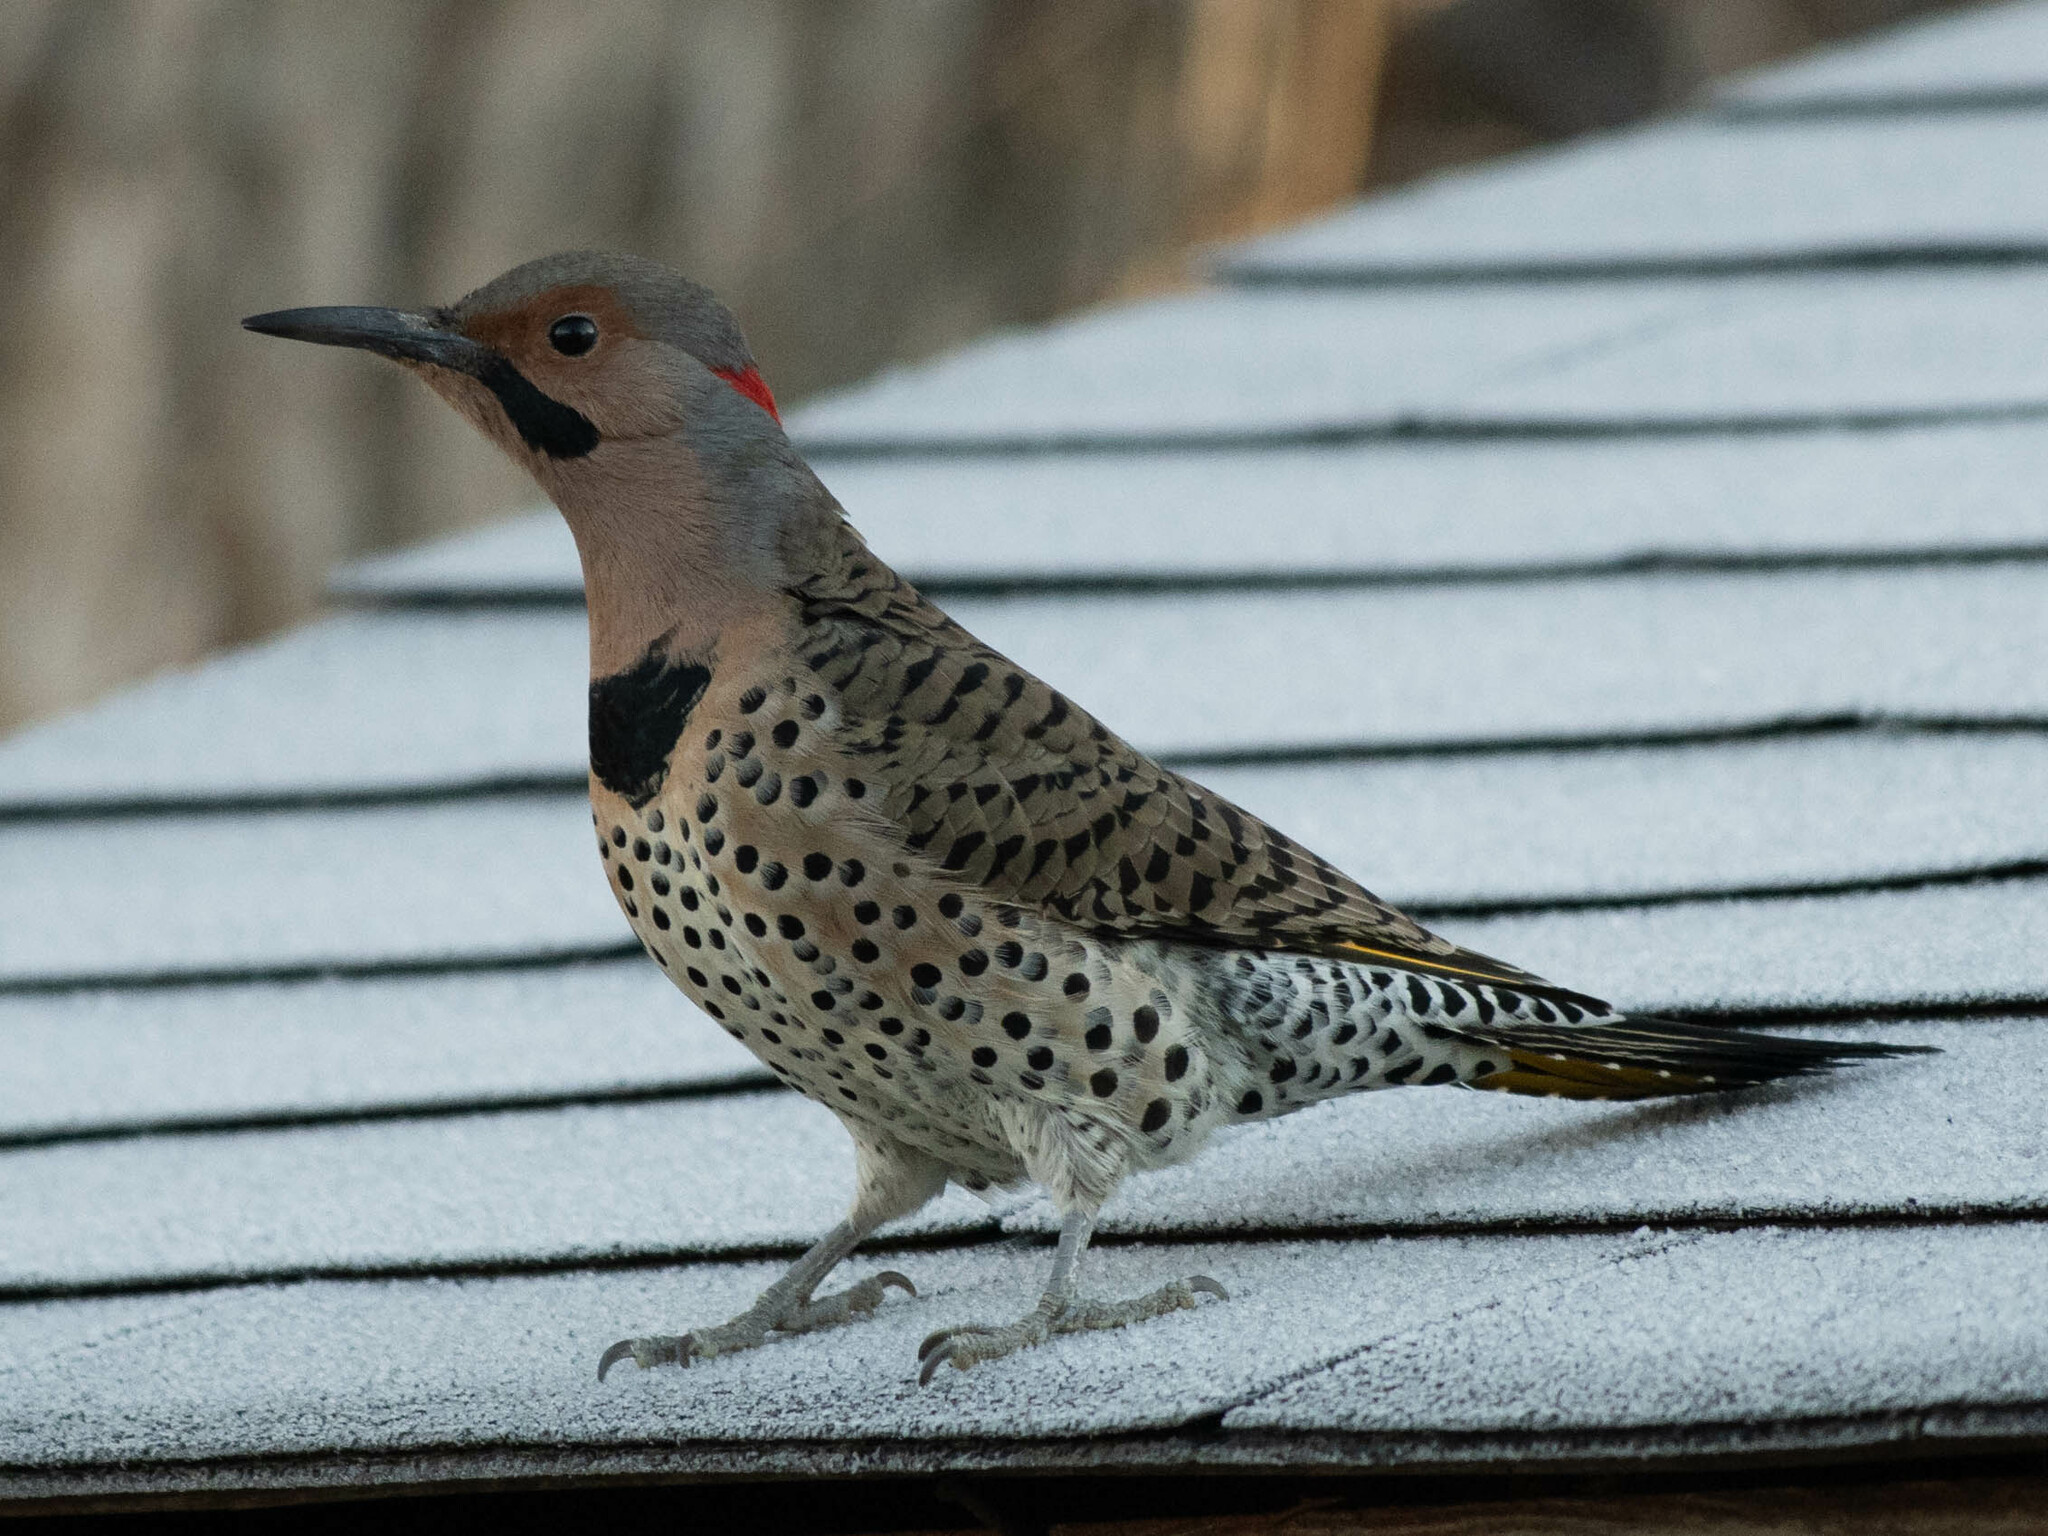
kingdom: Animalia
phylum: Chordata
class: Aves
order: Piciformes
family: Picidae
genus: Colaptes
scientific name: Colaptes auratus
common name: Northern flicker
